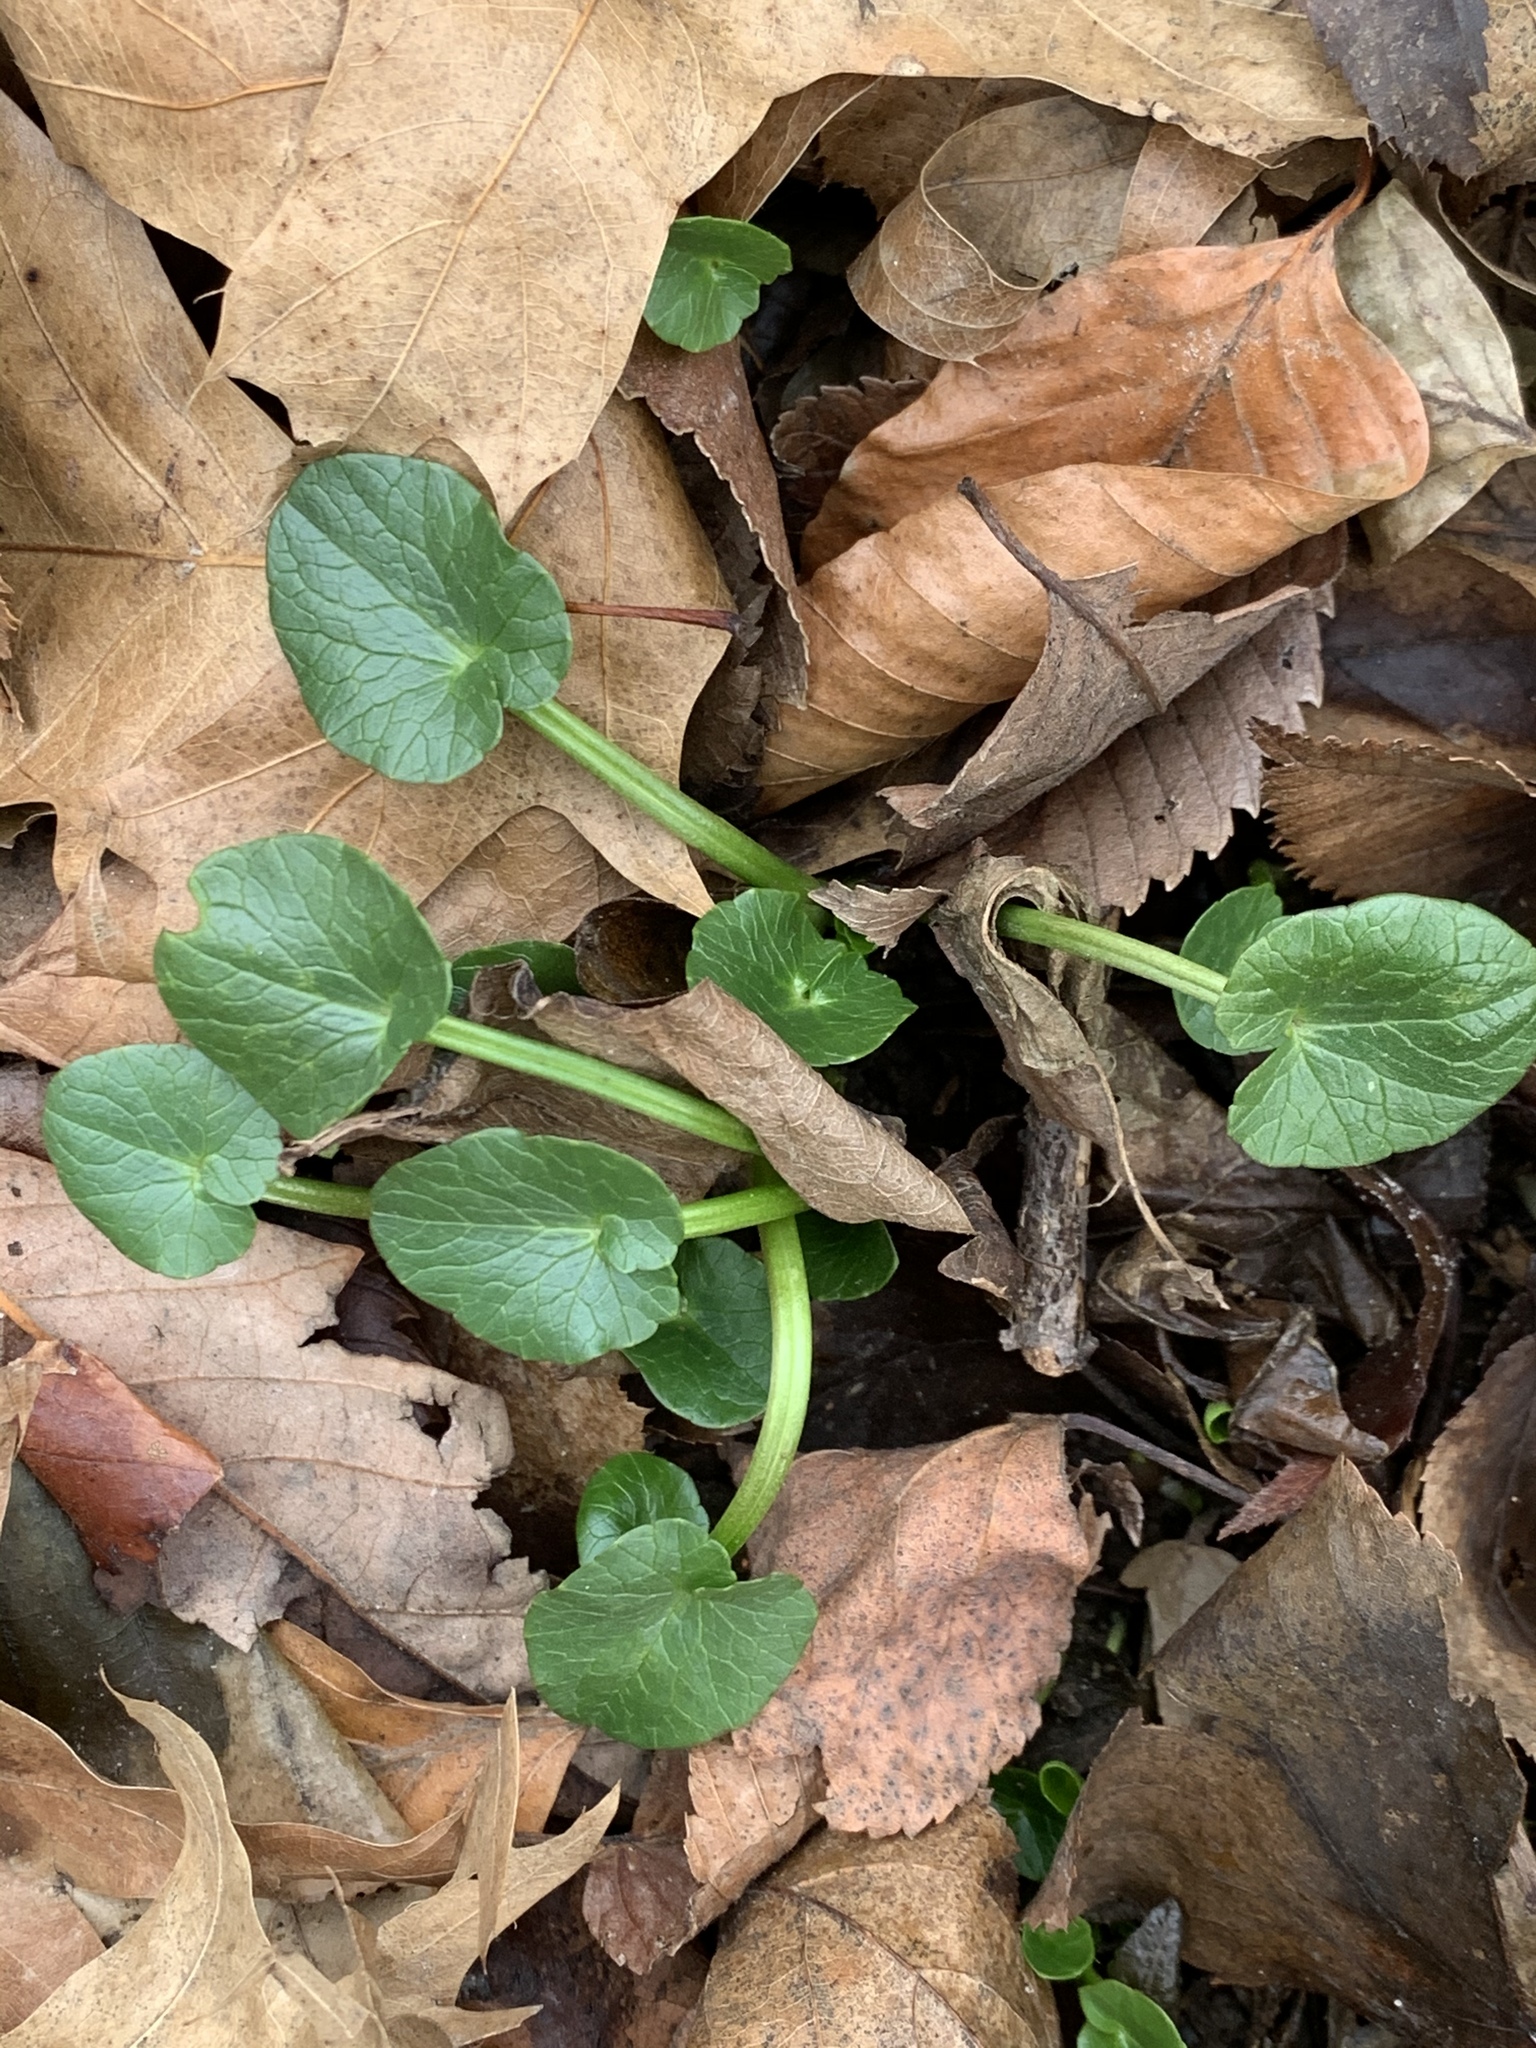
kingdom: Plantae
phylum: Tracheophyta
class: Magnoliopsida
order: Ranunculales
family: Ranunculaceae
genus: Ficaria
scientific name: Ficaria verna
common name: Lesser celandine
